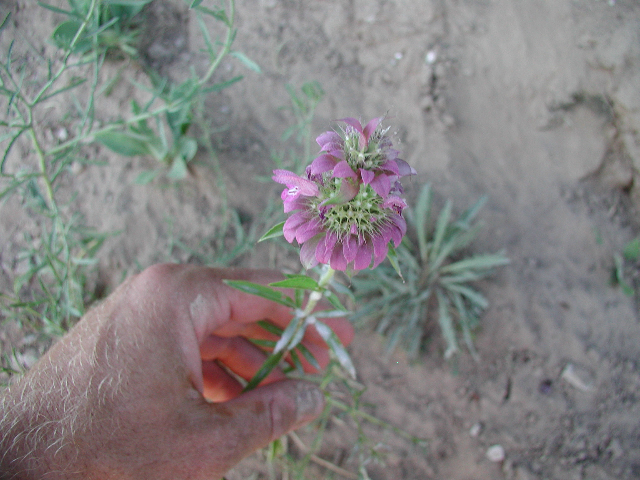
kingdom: Plantae
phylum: Tracheophyta
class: Magnoliopsida
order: Lamiales
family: Lamiaceae
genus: Monarda
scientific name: Monarda citriodora
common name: Lemon beebalm
